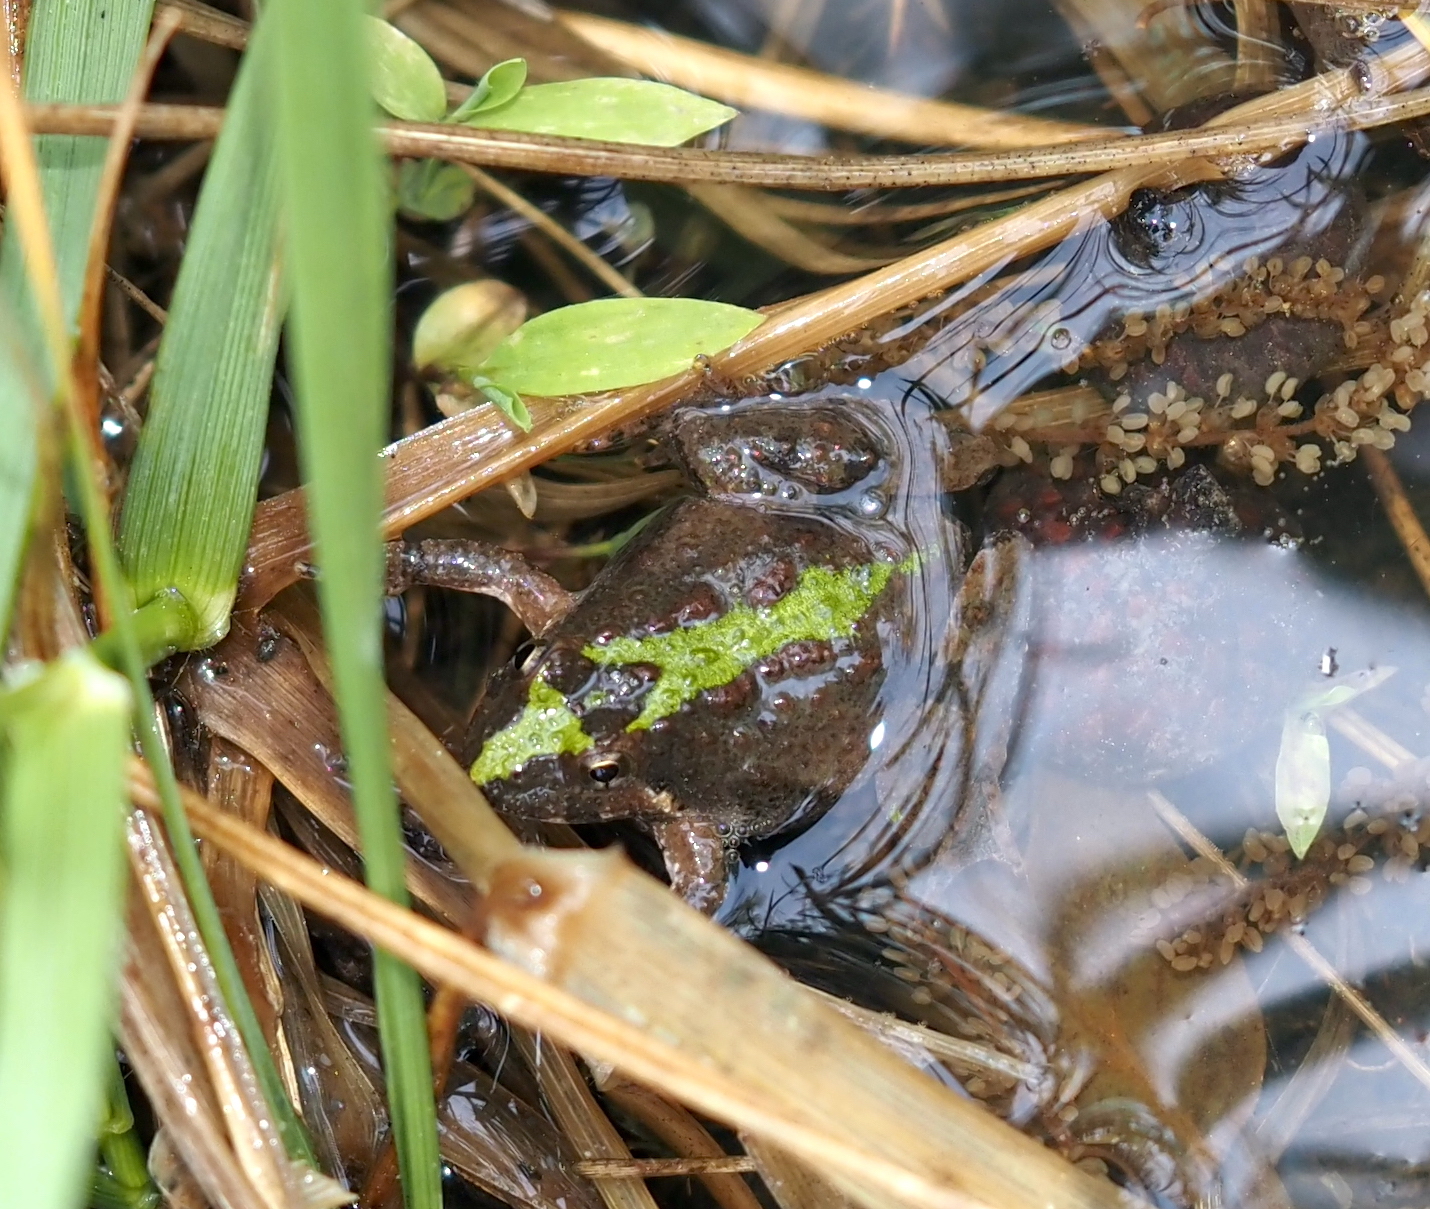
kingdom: Animalia
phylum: Chordata
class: Amphibia
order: Anura
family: Hylidae
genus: Acris
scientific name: Acris crepitans
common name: Northern cricket frog
